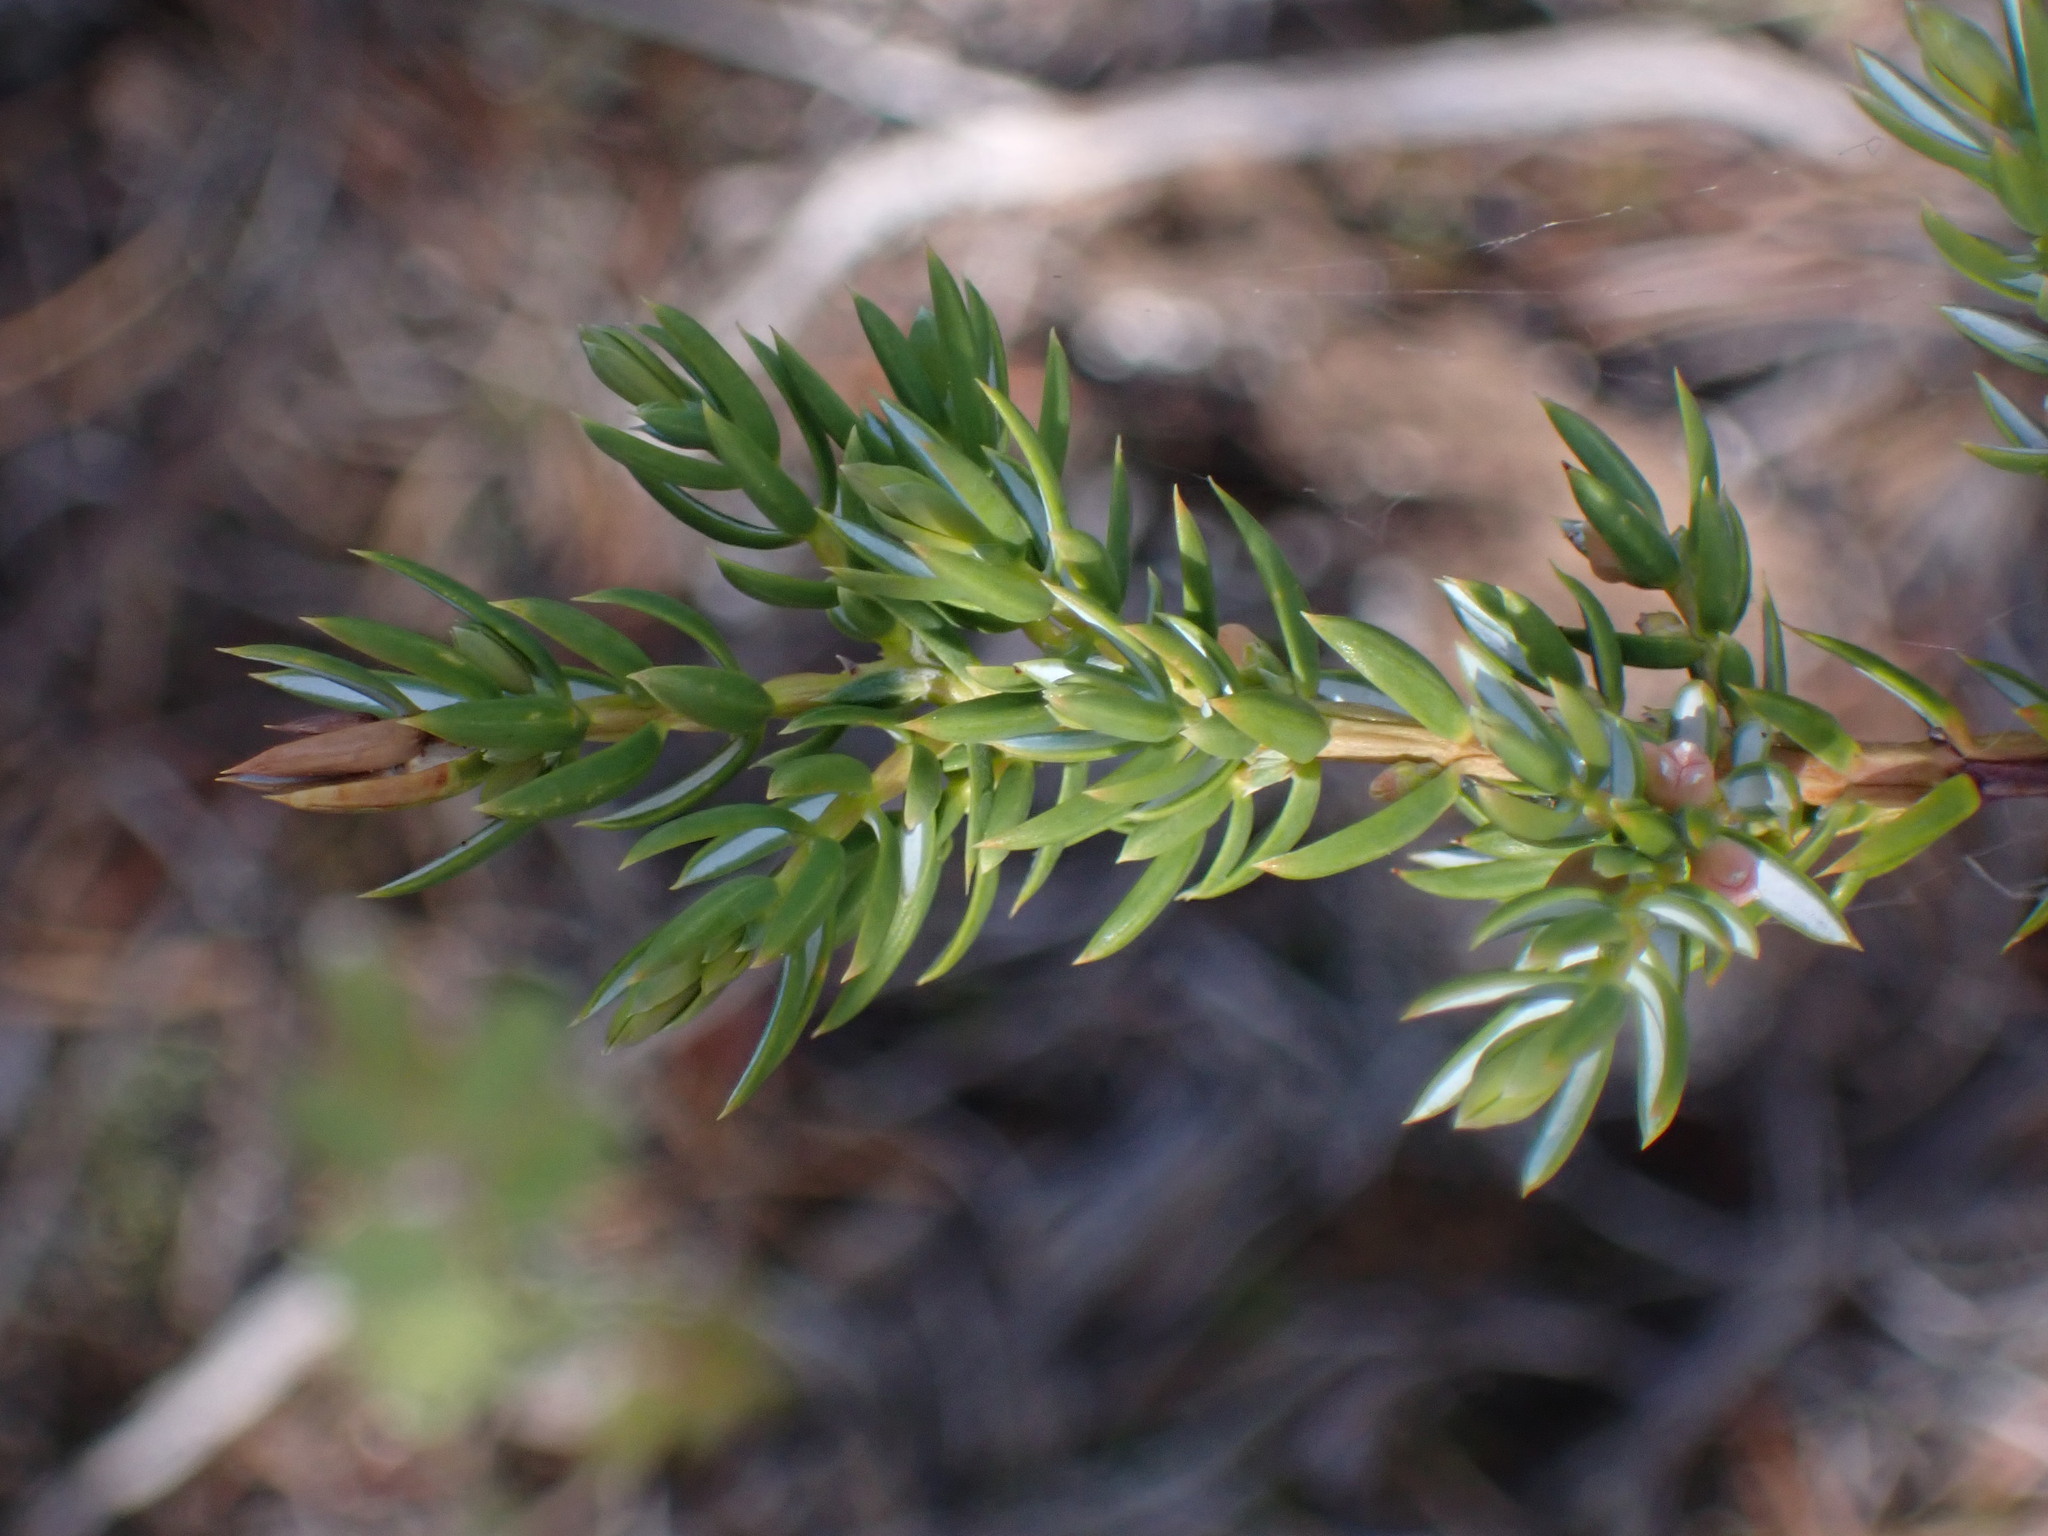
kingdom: Plantae
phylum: Tracheophyta
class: Pinopsida
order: Pinales
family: Cupressaceae
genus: Juniperus
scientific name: Juniperus communis
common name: Common juniper
